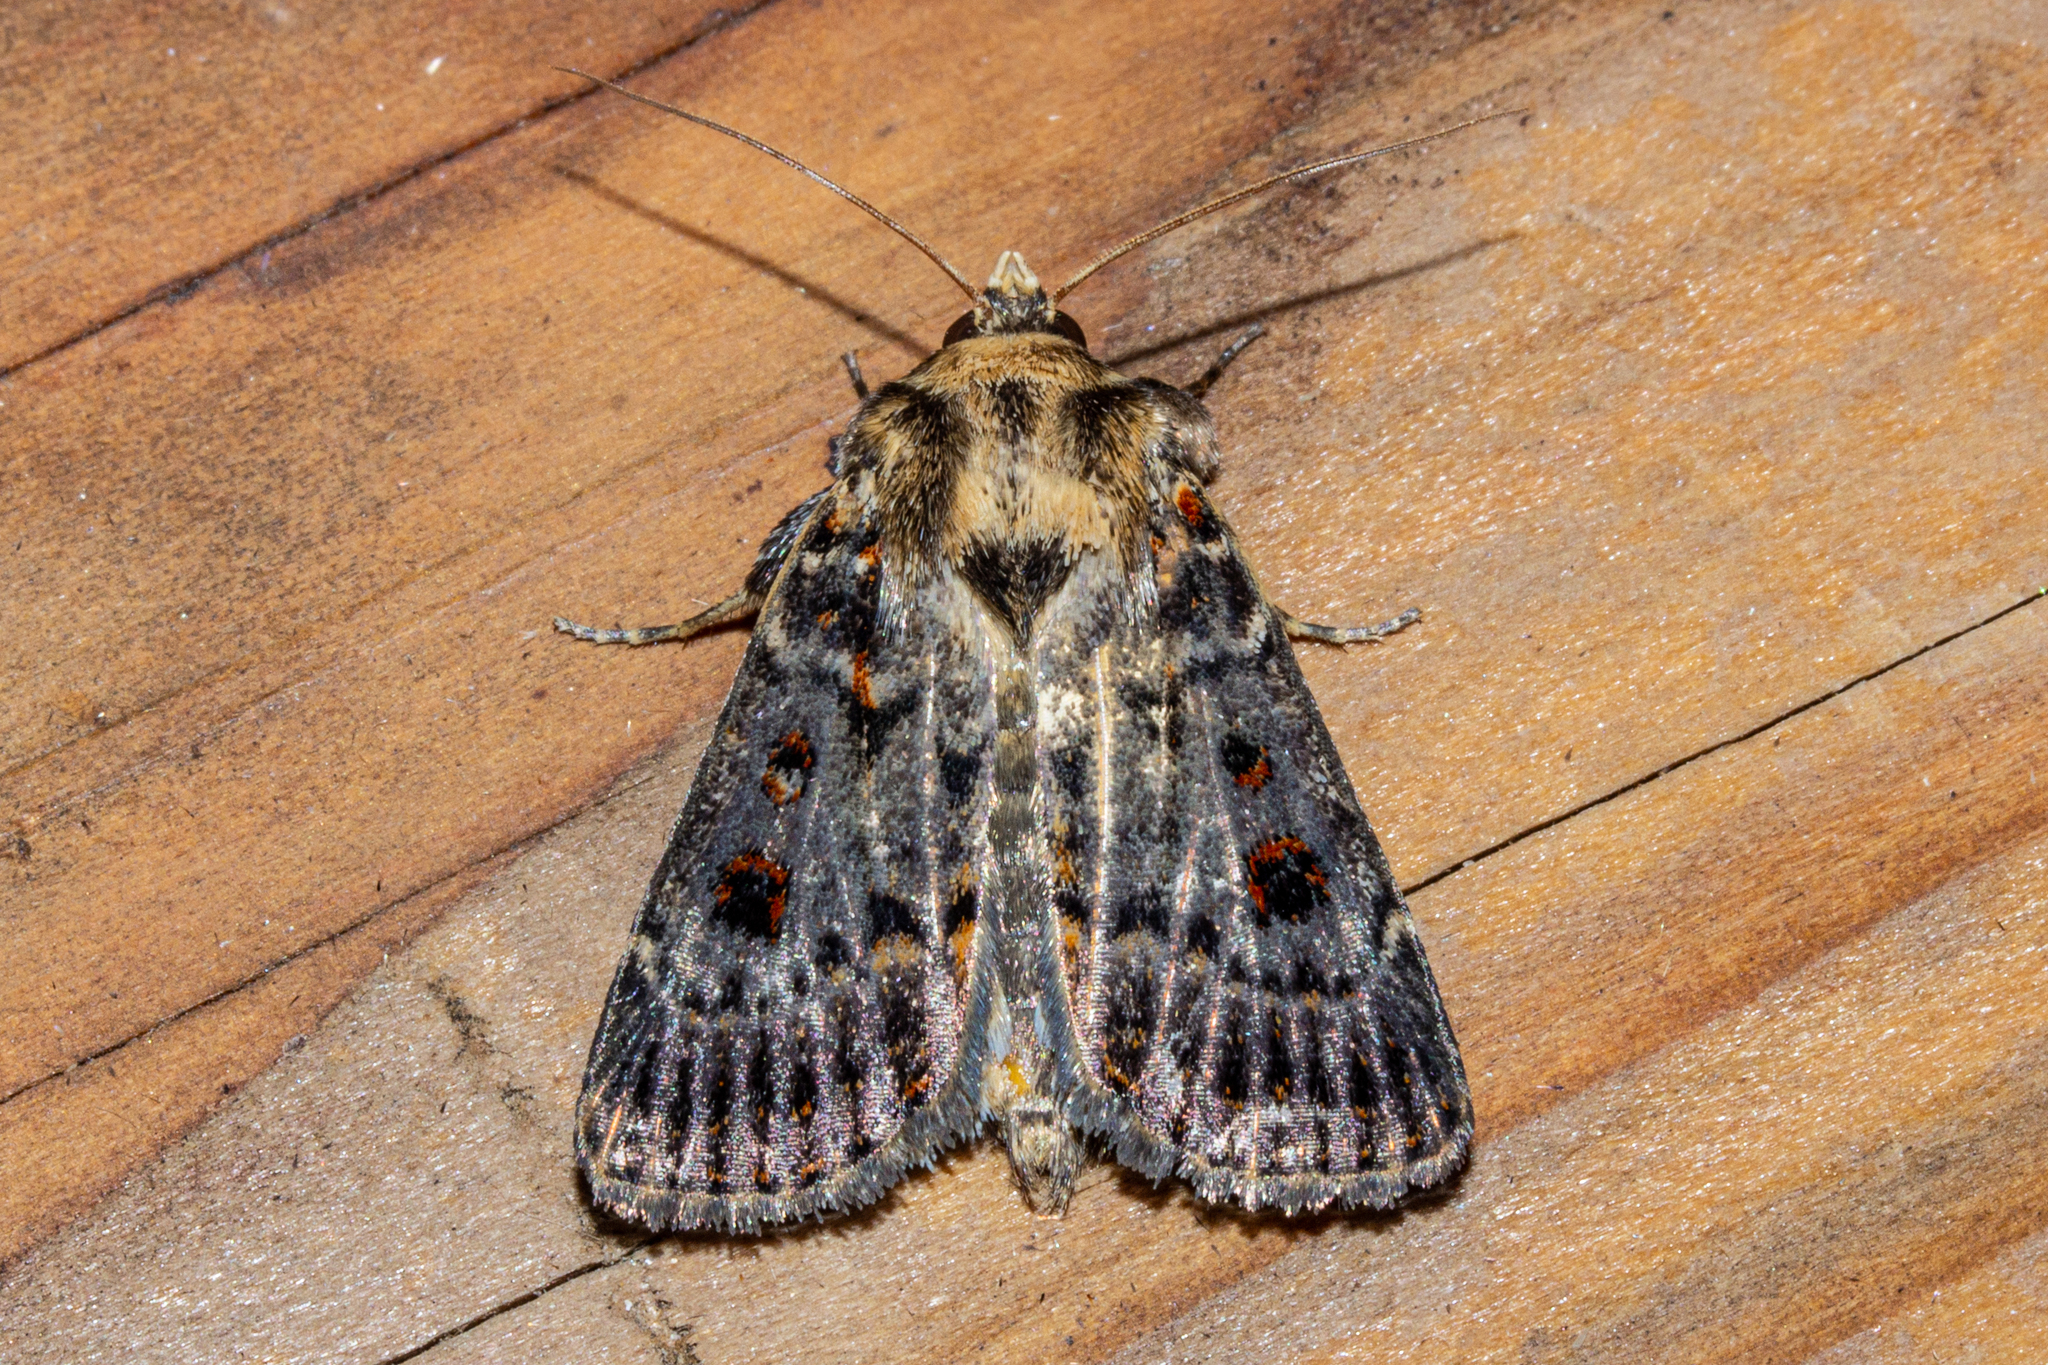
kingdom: Animalia
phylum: Arthropoda
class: Insecta
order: Lepidoptera
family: Noctuidae
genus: Proteuxoa
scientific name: Proteuxoa sanguinipuncta
